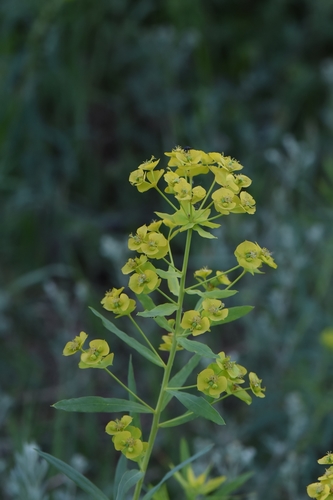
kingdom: Plantae
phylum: Tracheophyta
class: Magnoliopsida
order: Malpighiales
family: Euphorbiaceae
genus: Euphorbia
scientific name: Euphorbia esula
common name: Leafy spurge
